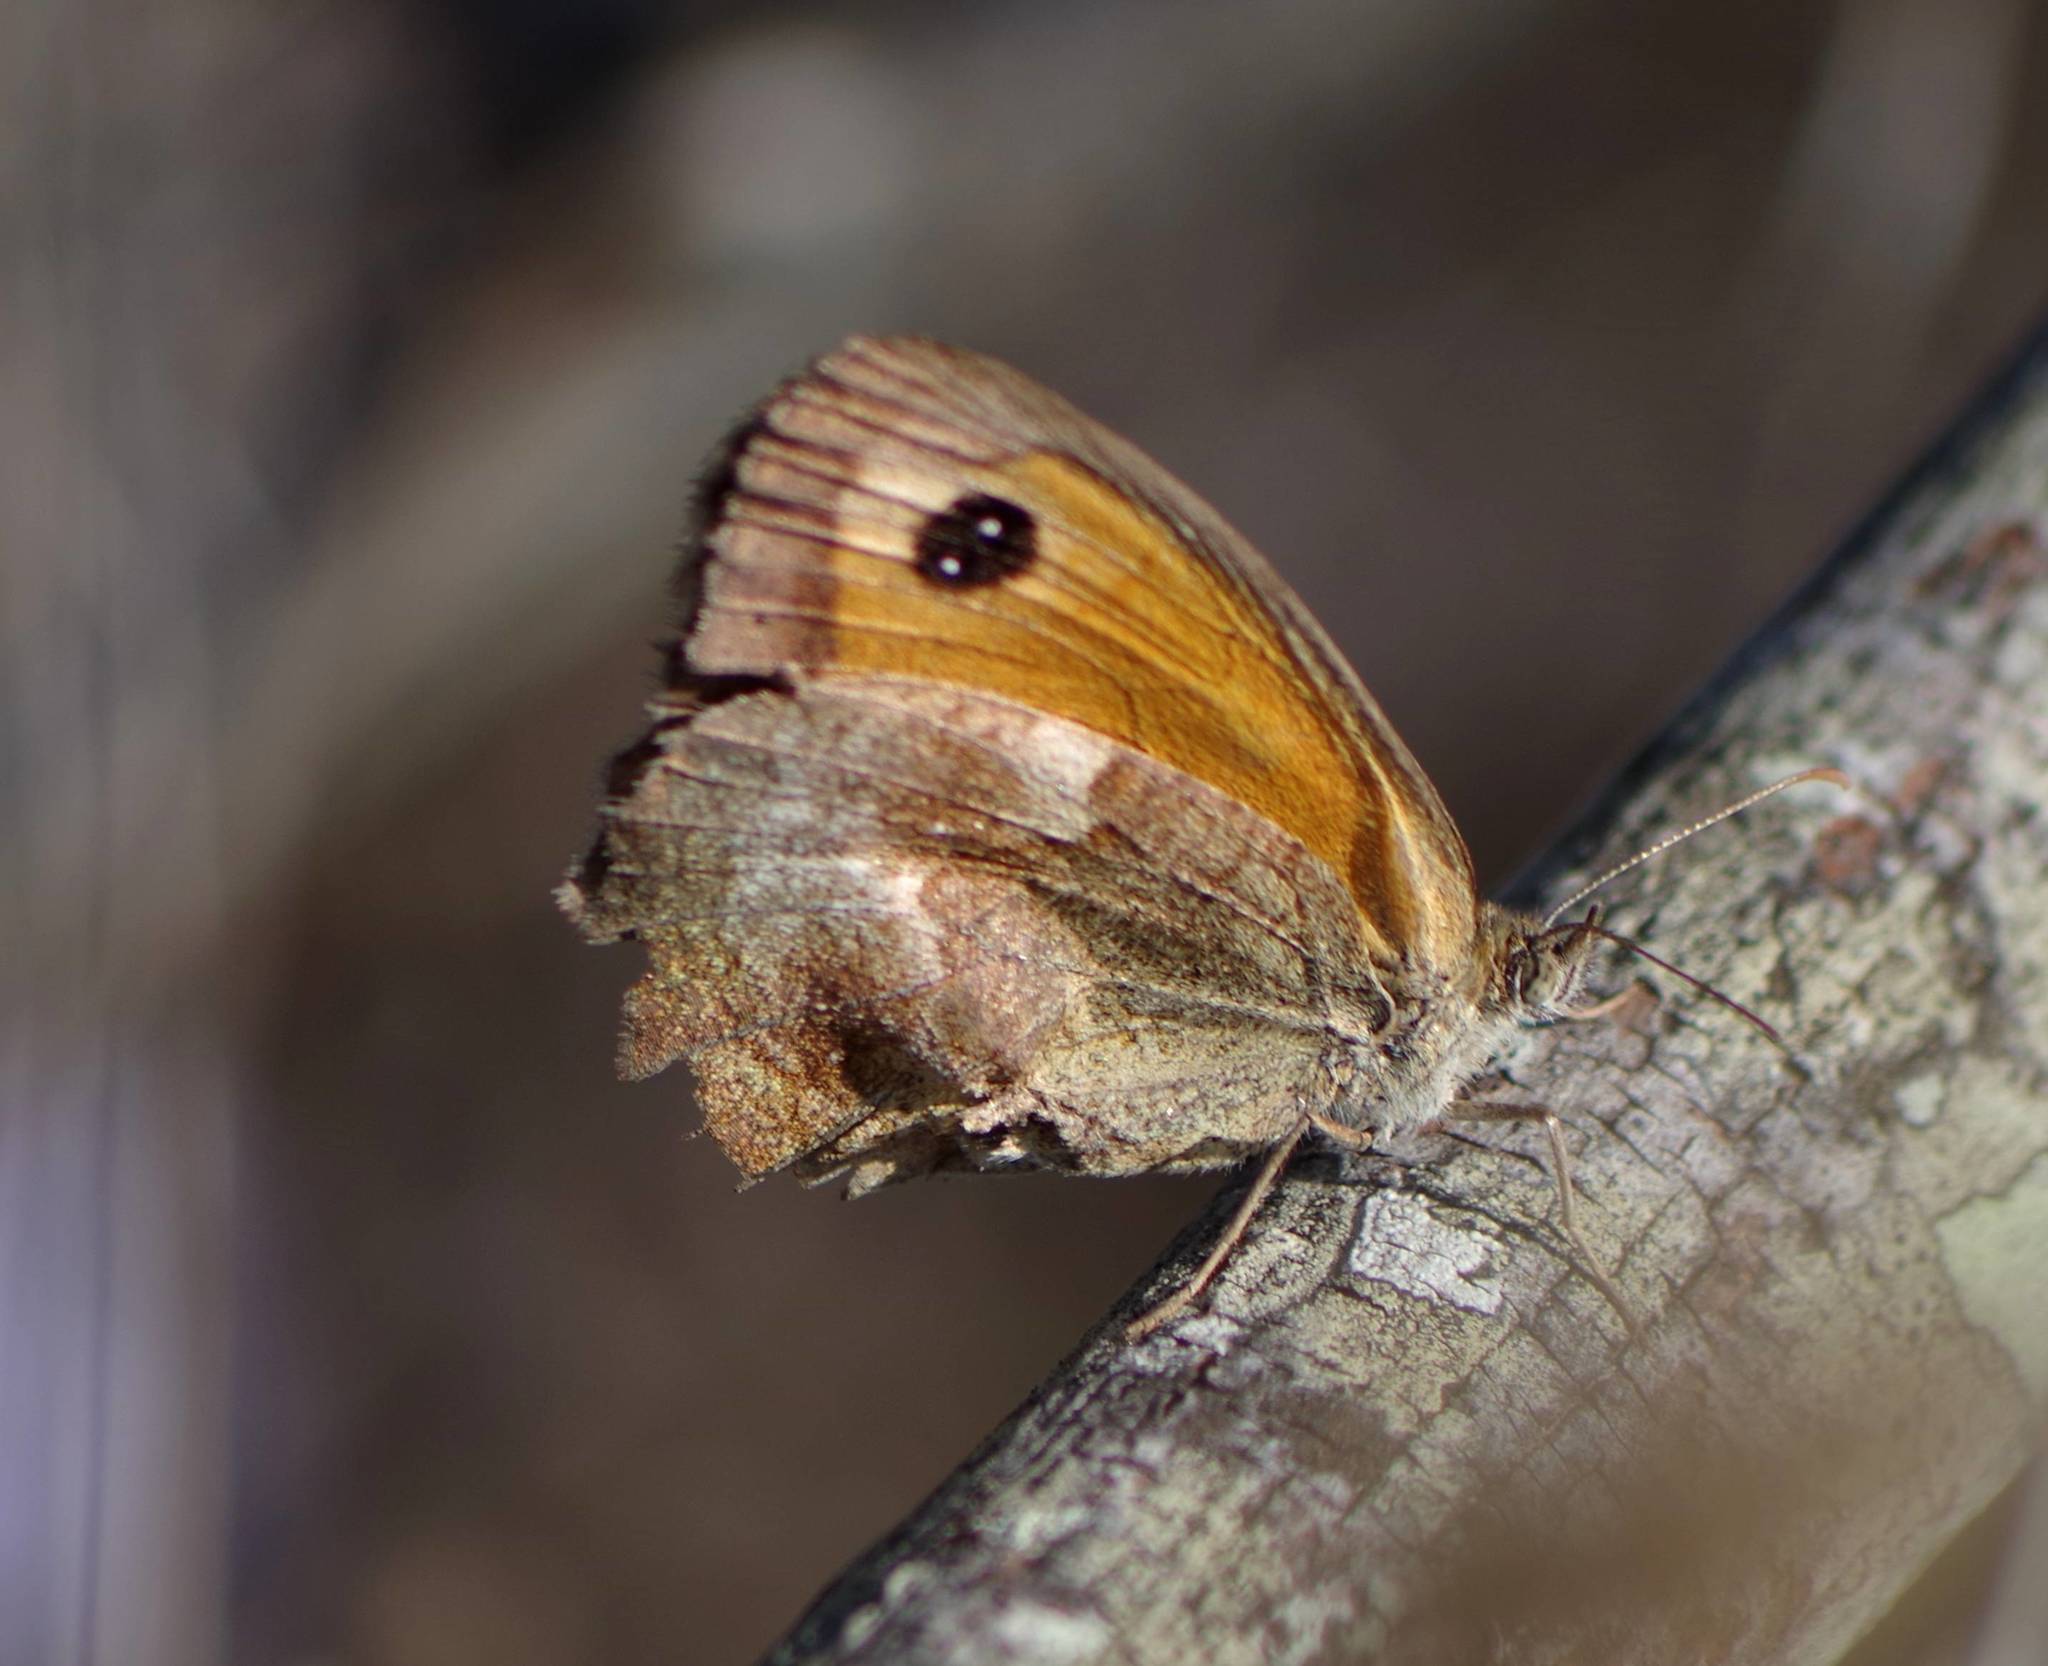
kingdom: Animalia
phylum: Arthropoda
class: Insecta
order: Lepidoptera
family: Nymphalidae
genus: Pyronia
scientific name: Pyronia tithonus
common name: Gatekeeper
